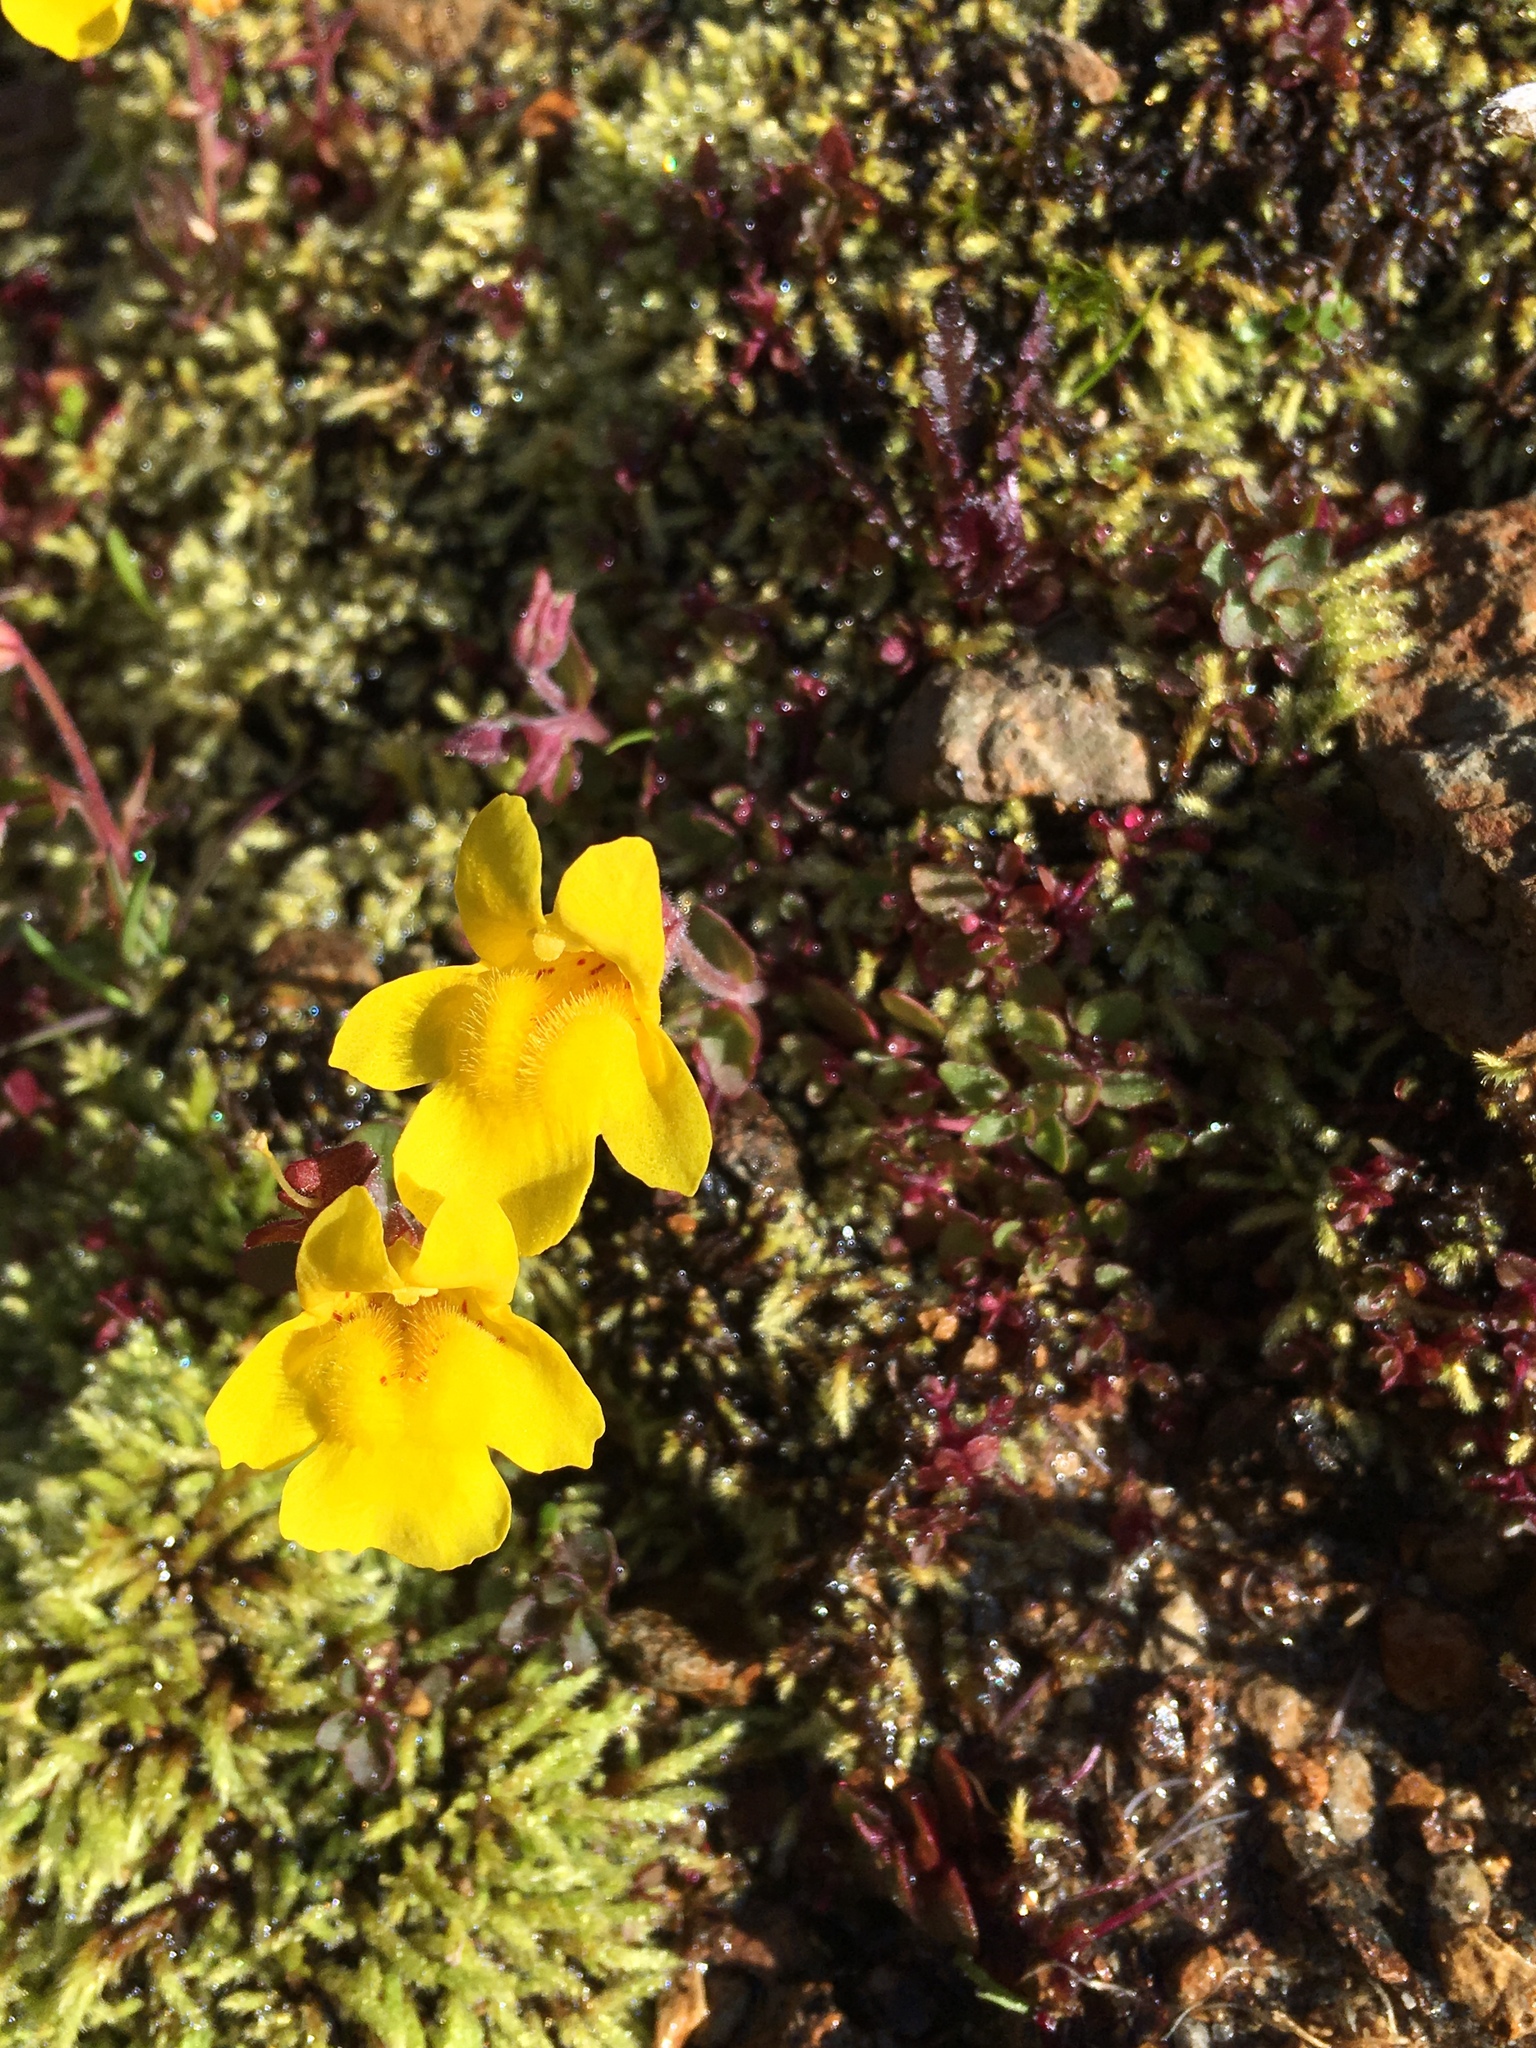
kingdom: Plantae
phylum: Tracheophyta
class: Magnoliopsida
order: Lamiales
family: Phrymaceae
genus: Erythranthe
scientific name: Erythranthe caespitosa
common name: Subalpine monkeyflower
